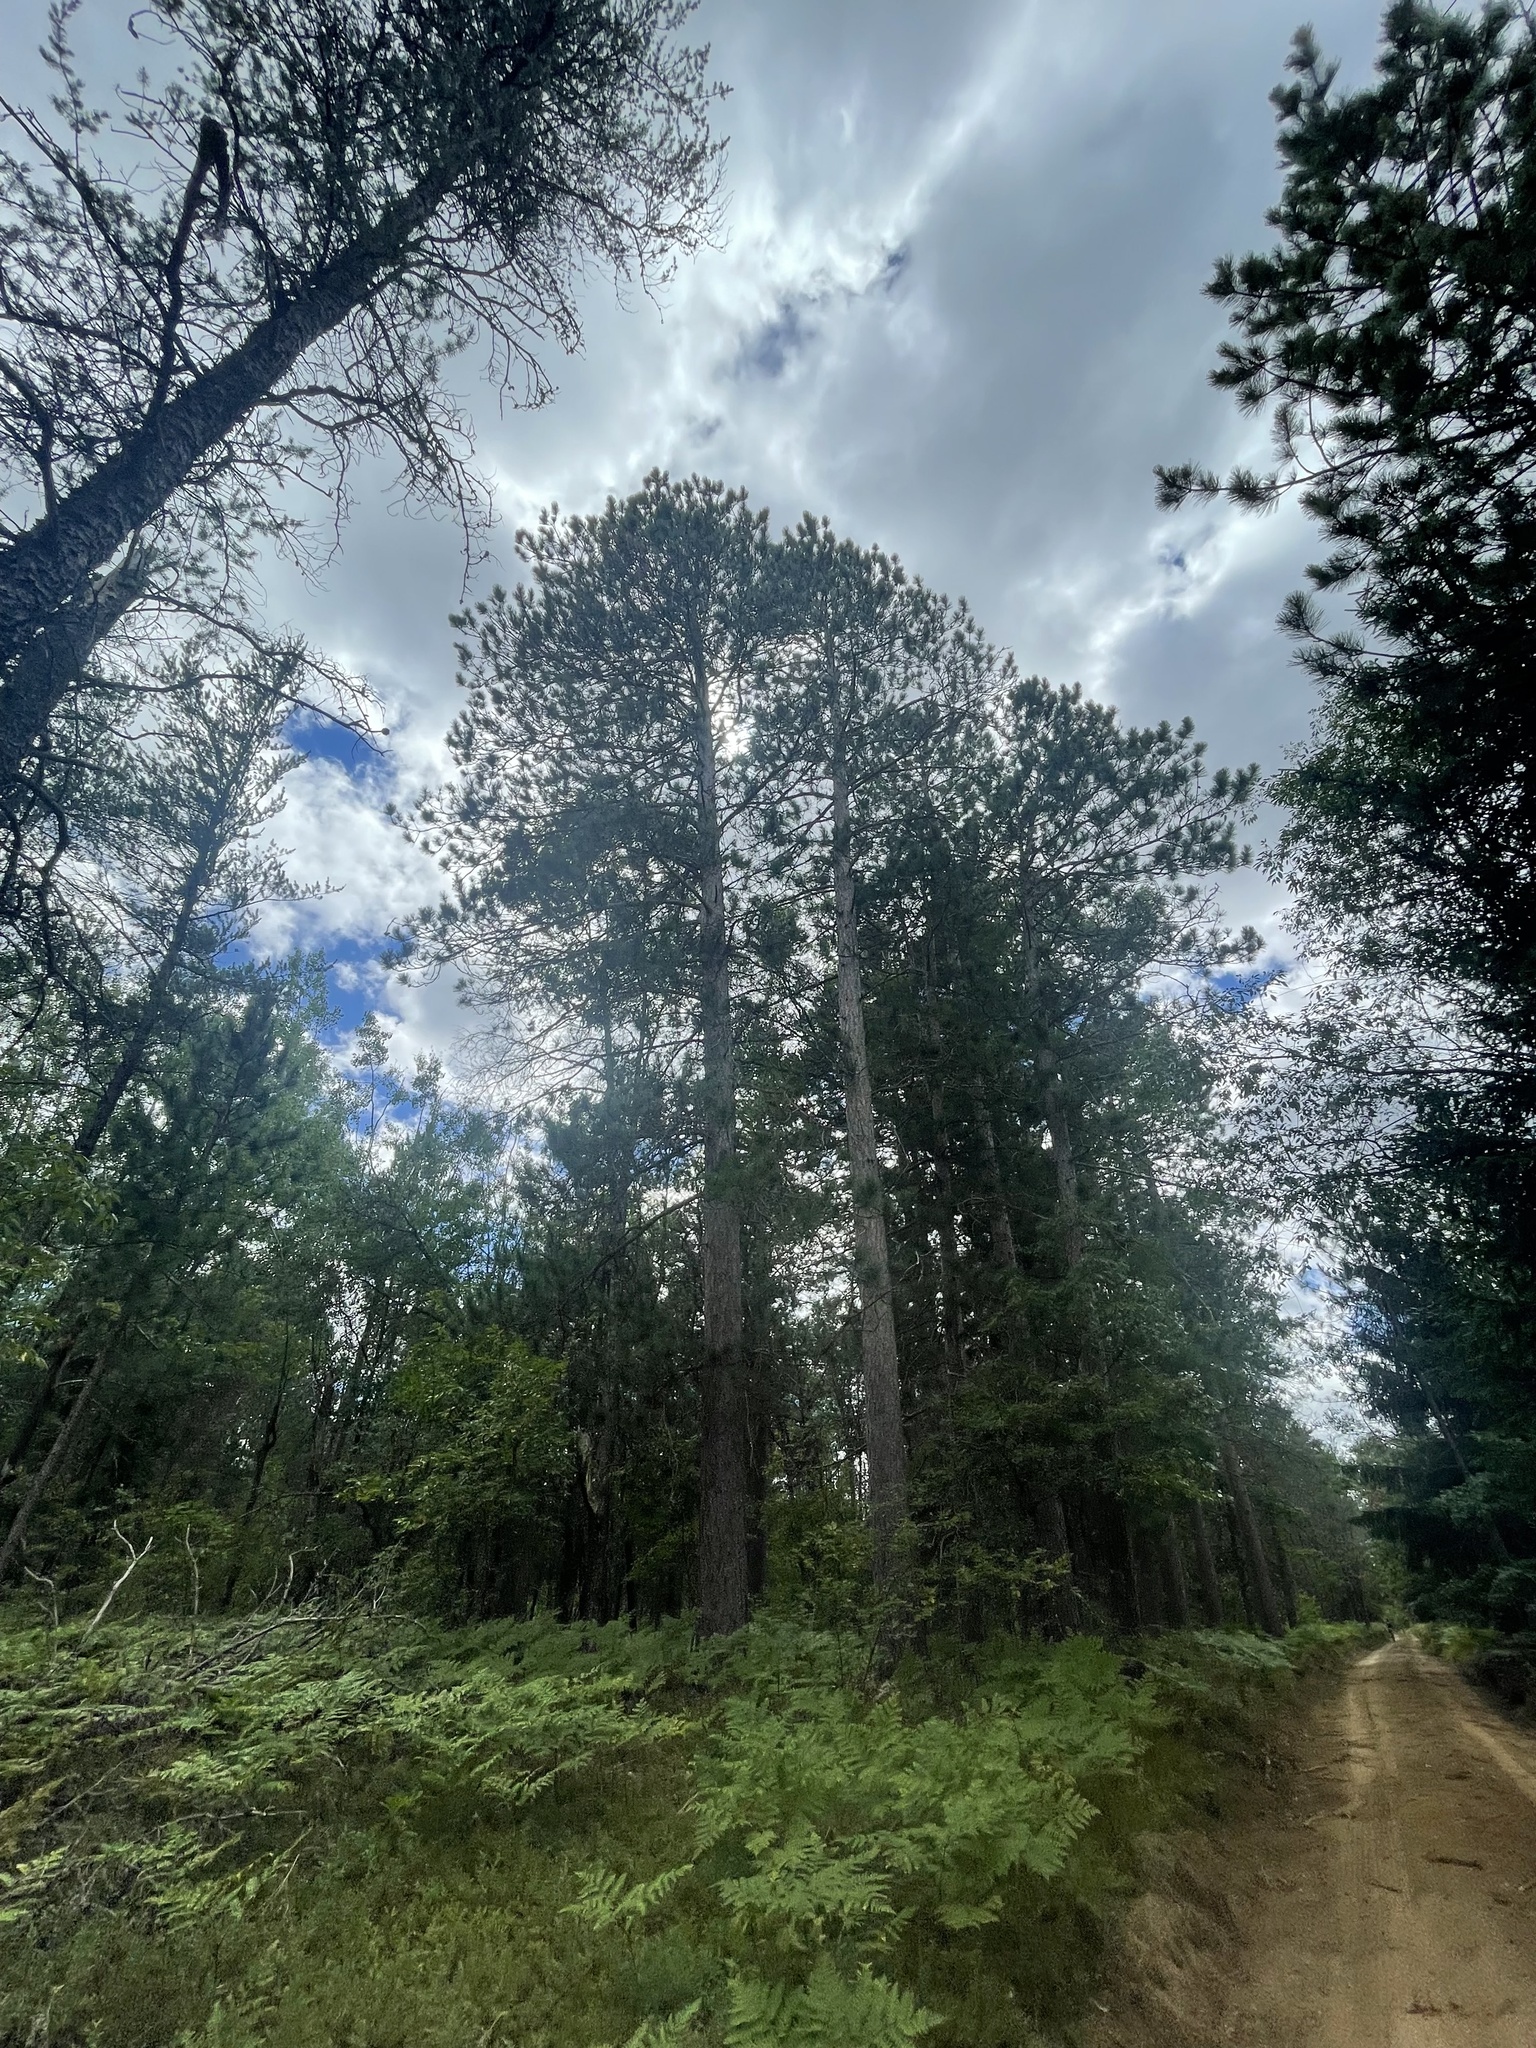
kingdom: Plantae
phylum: Tracheophyta
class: Pinopsida
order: Pinales
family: Pinaceae
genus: Pinus
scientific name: Pinus resinosa
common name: Norway pine
